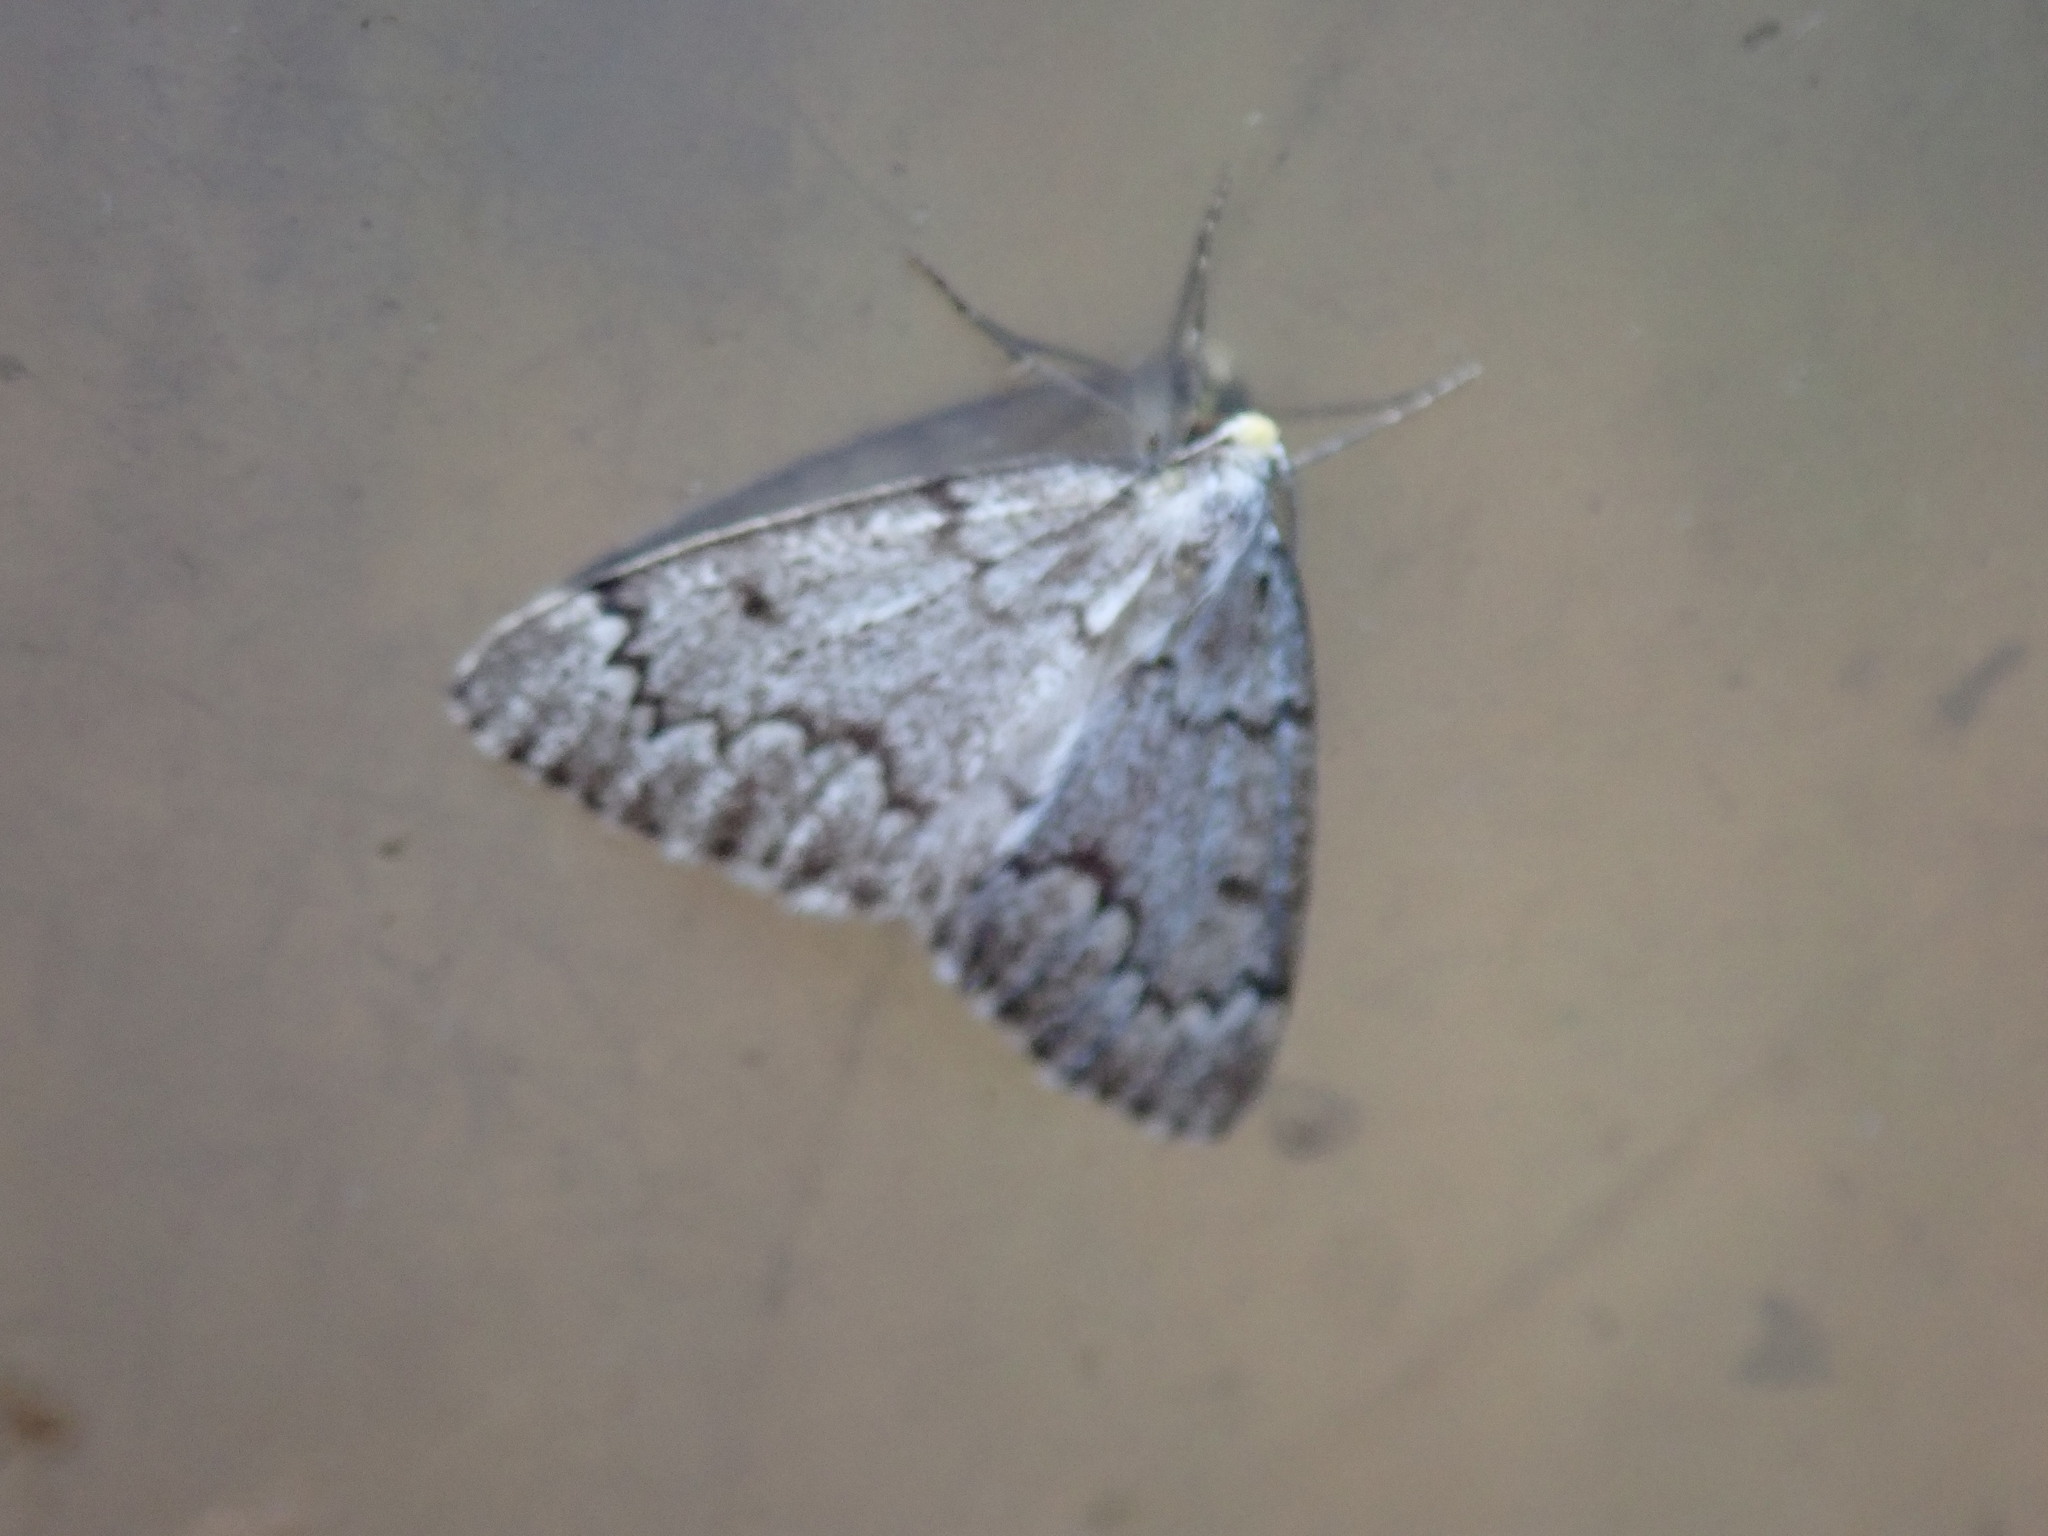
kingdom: Animalia
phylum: Arthropoda
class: Insecta
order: Lepidoptera
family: Geometridae
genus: Nepytia
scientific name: Nepytia canosaria
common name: False hemlock looper
